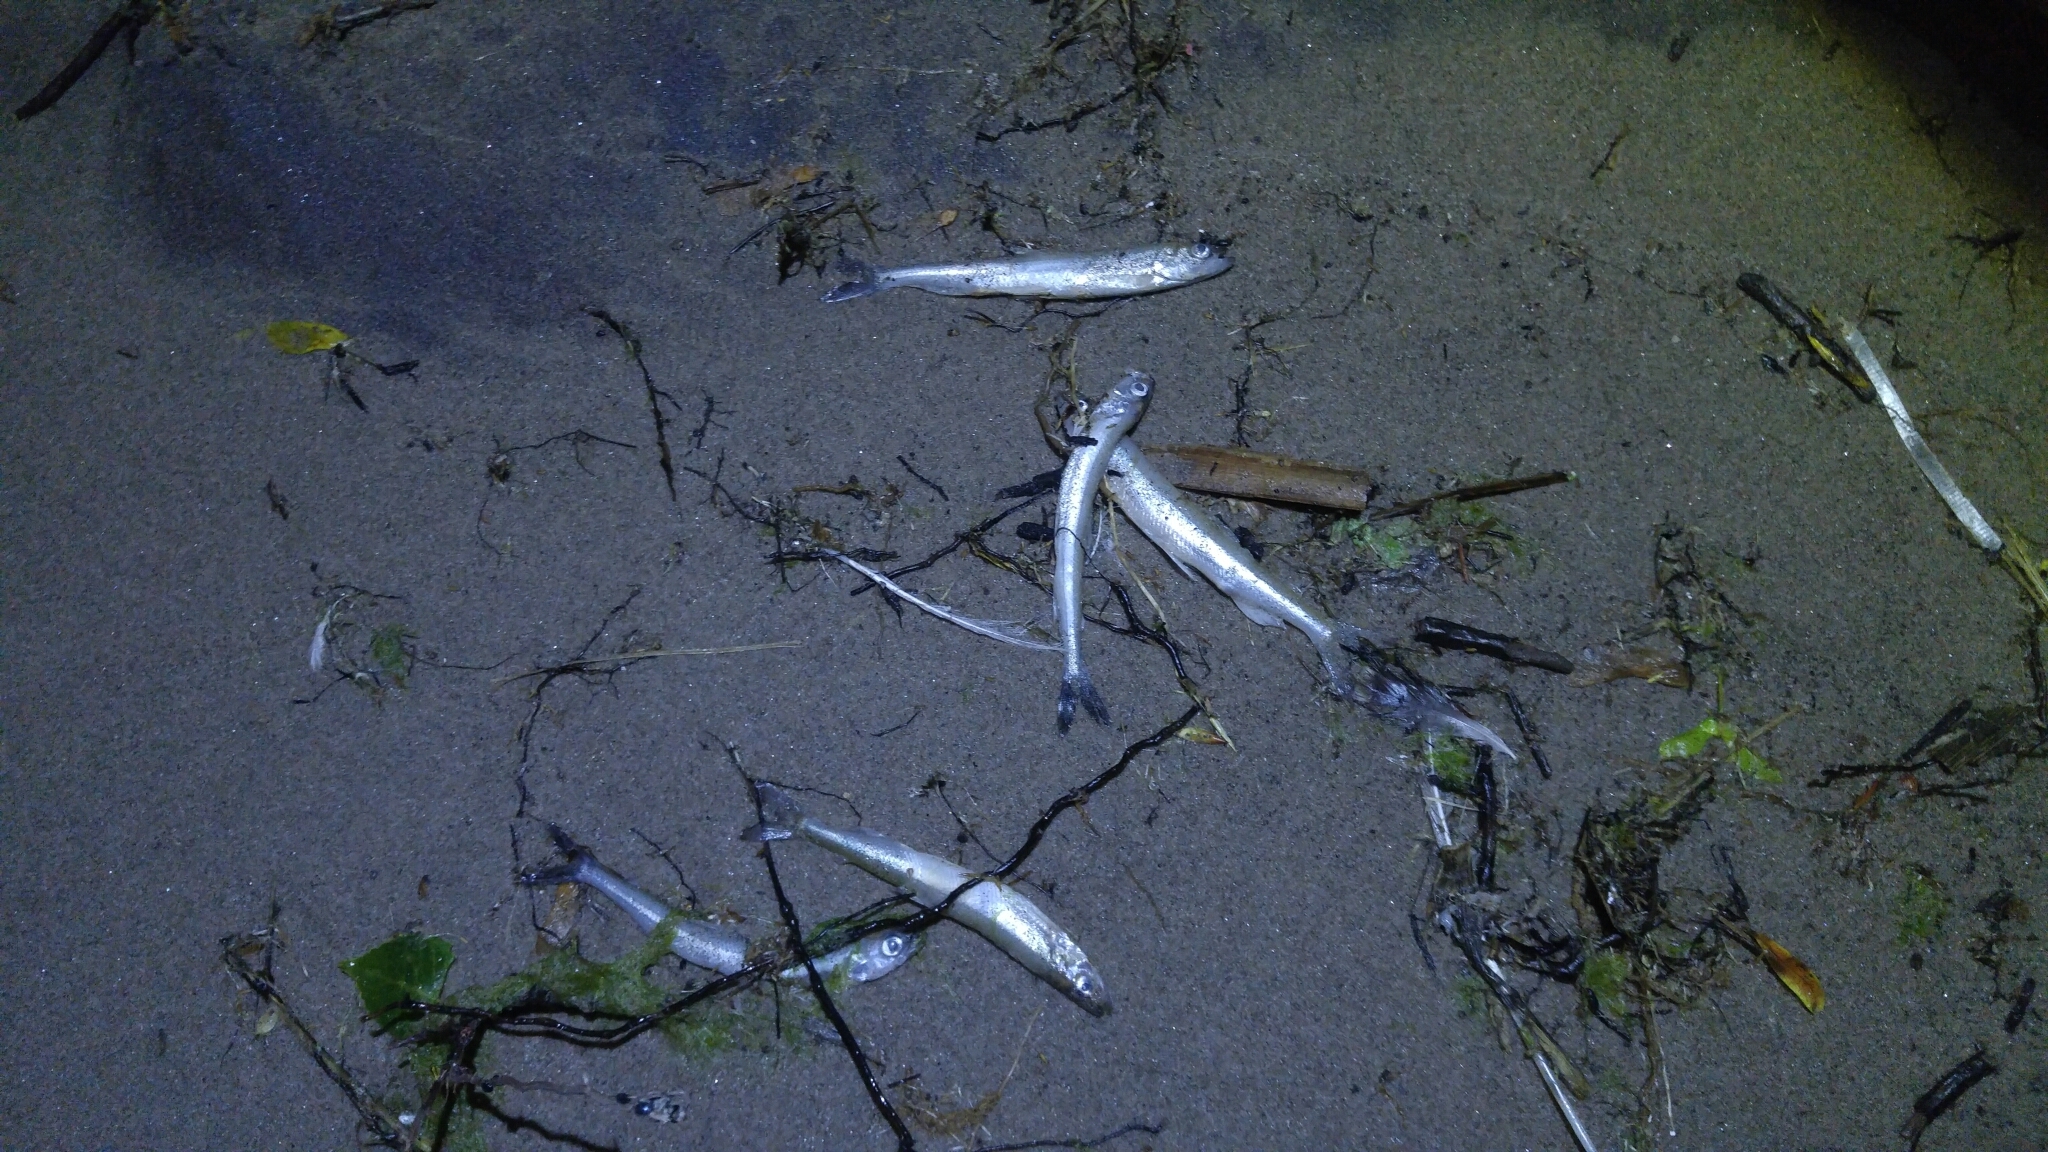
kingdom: Animalia
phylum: Chordata
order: Osmeriformes
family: Osmeridae
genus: Osmerus
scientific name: Osmerus mordax
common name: Rainbow smelt
